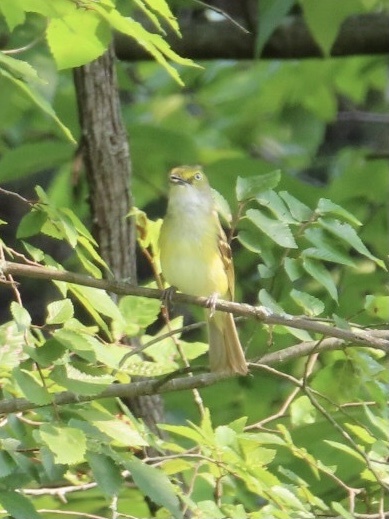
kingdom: Animalia
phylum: Chordata
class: Aves
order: Passeriformes
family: Vireonidae
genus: Vireo
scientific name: Vireo griseus
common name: White-eyed vireo
